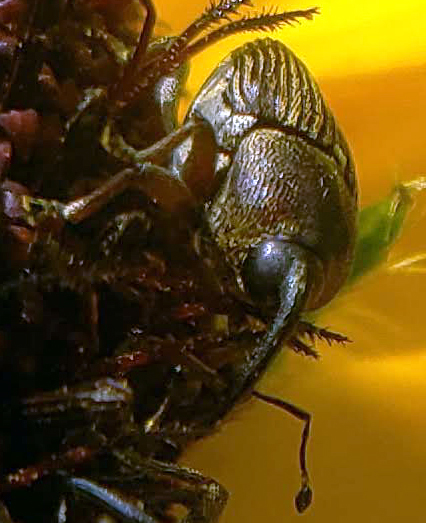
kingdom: Animalia
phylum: Arthropoda
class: Insecta
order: Coleoptera
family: Curculionidae
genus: Odontocorynus
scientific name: Odontocorynus umbellae
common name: Daisy flower weevil
